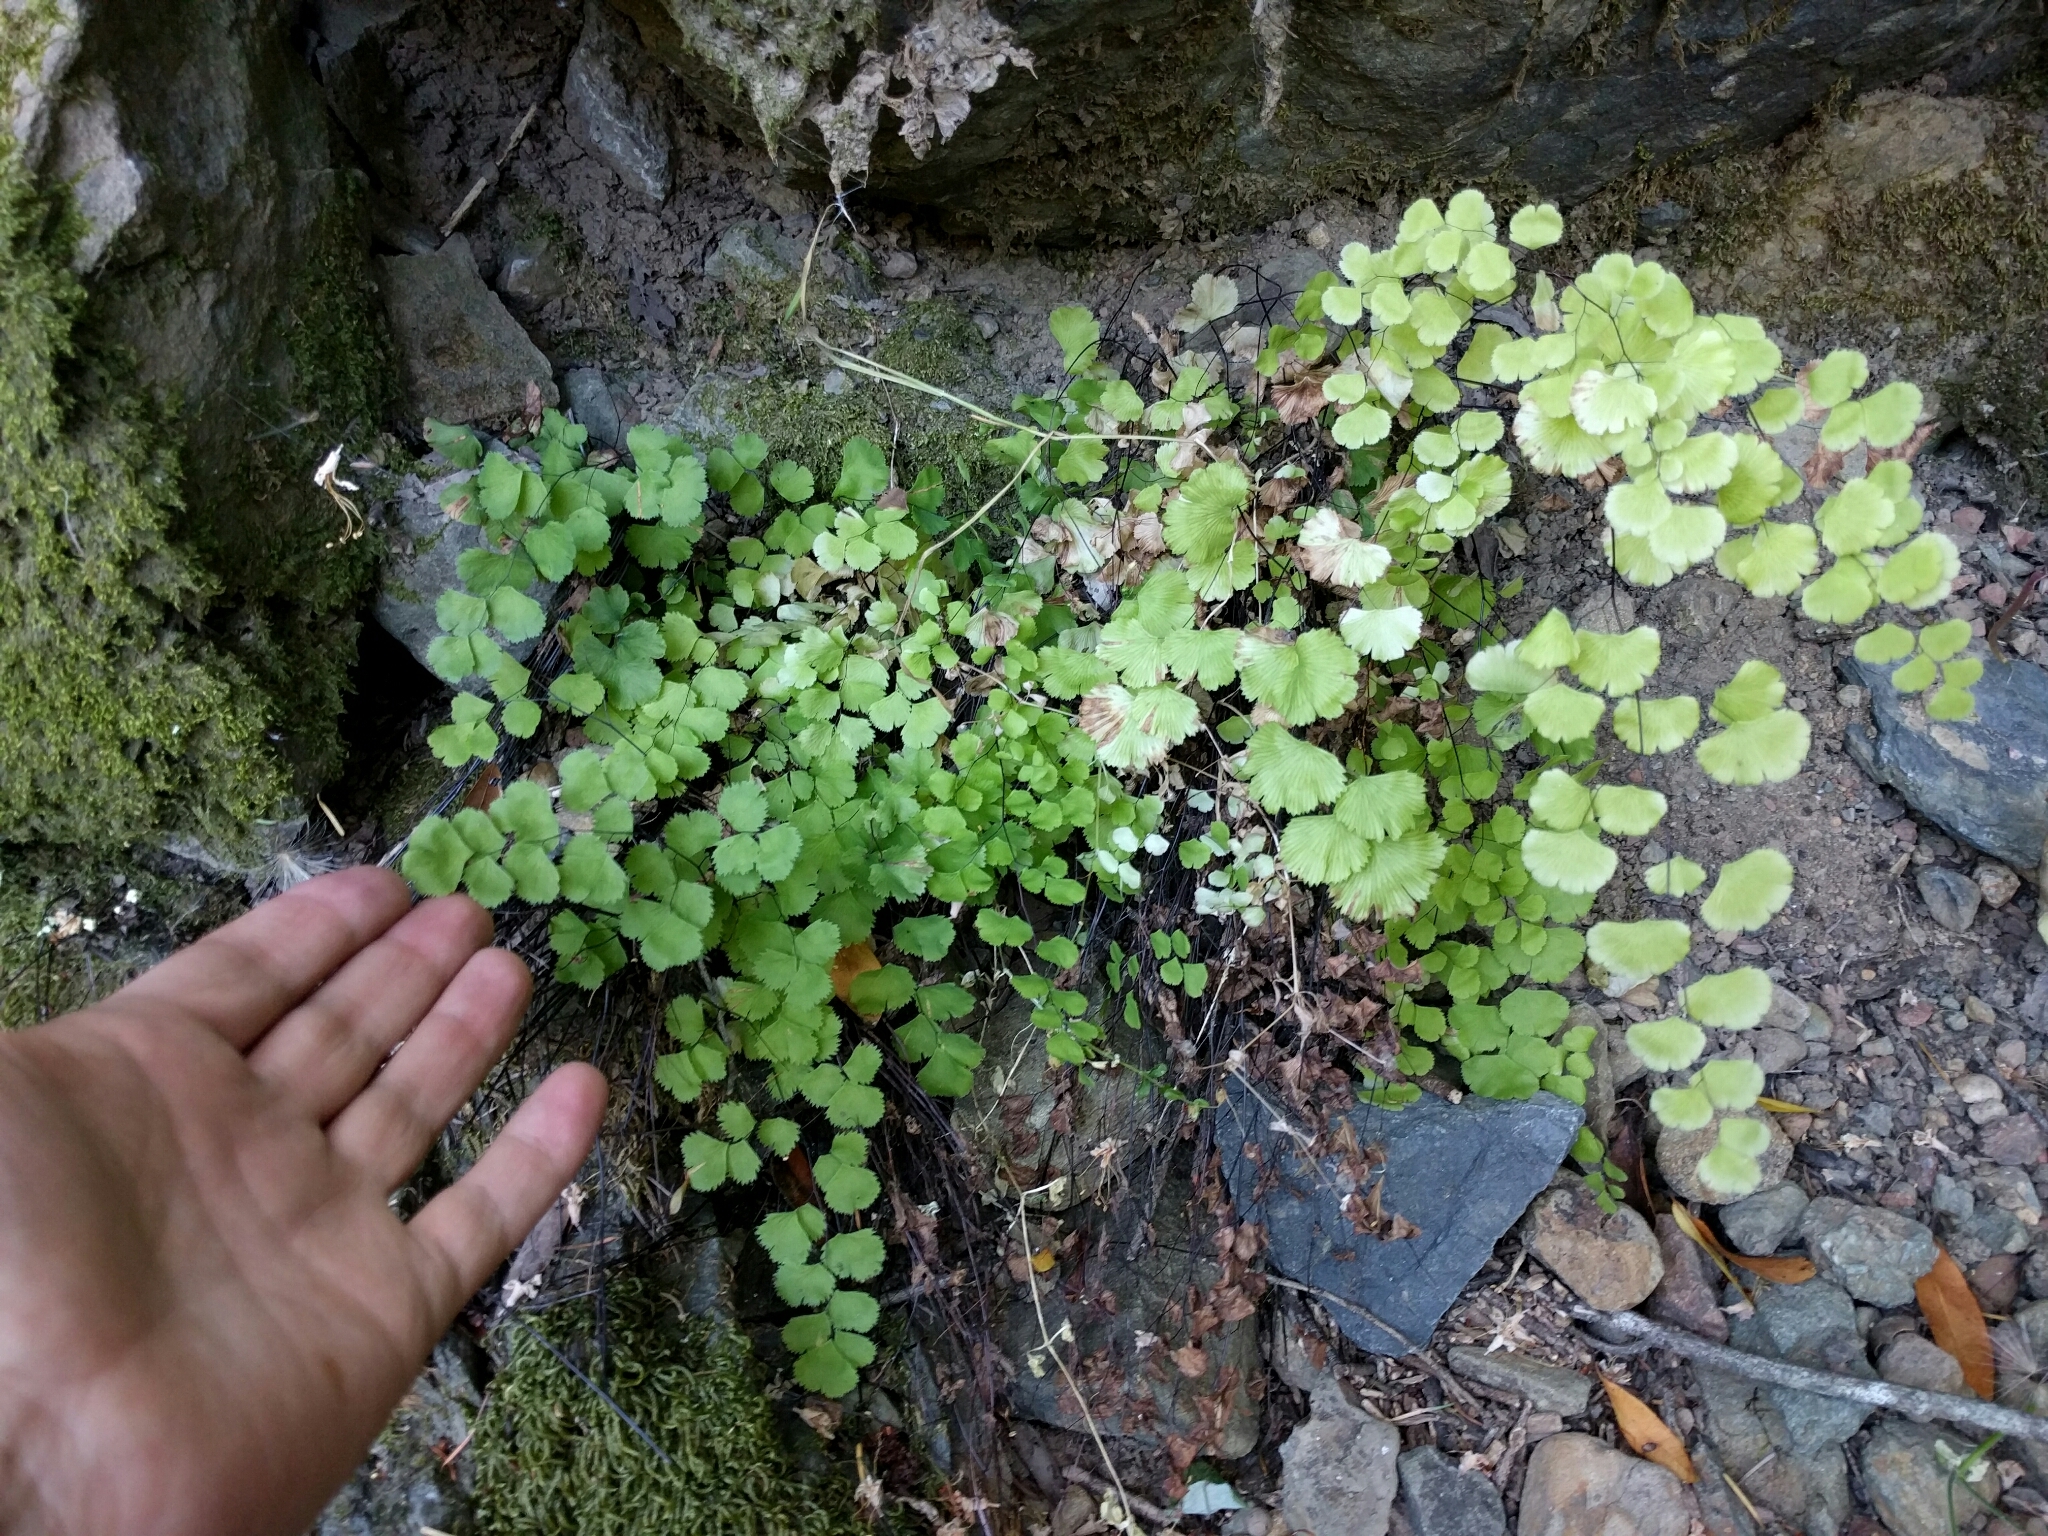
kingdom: Plantae
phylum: Tracheophyta
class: Polypodiopsida
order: Polypodiales
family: Pteridaceae
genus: Adiantum
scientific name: Adiantum jordanii
